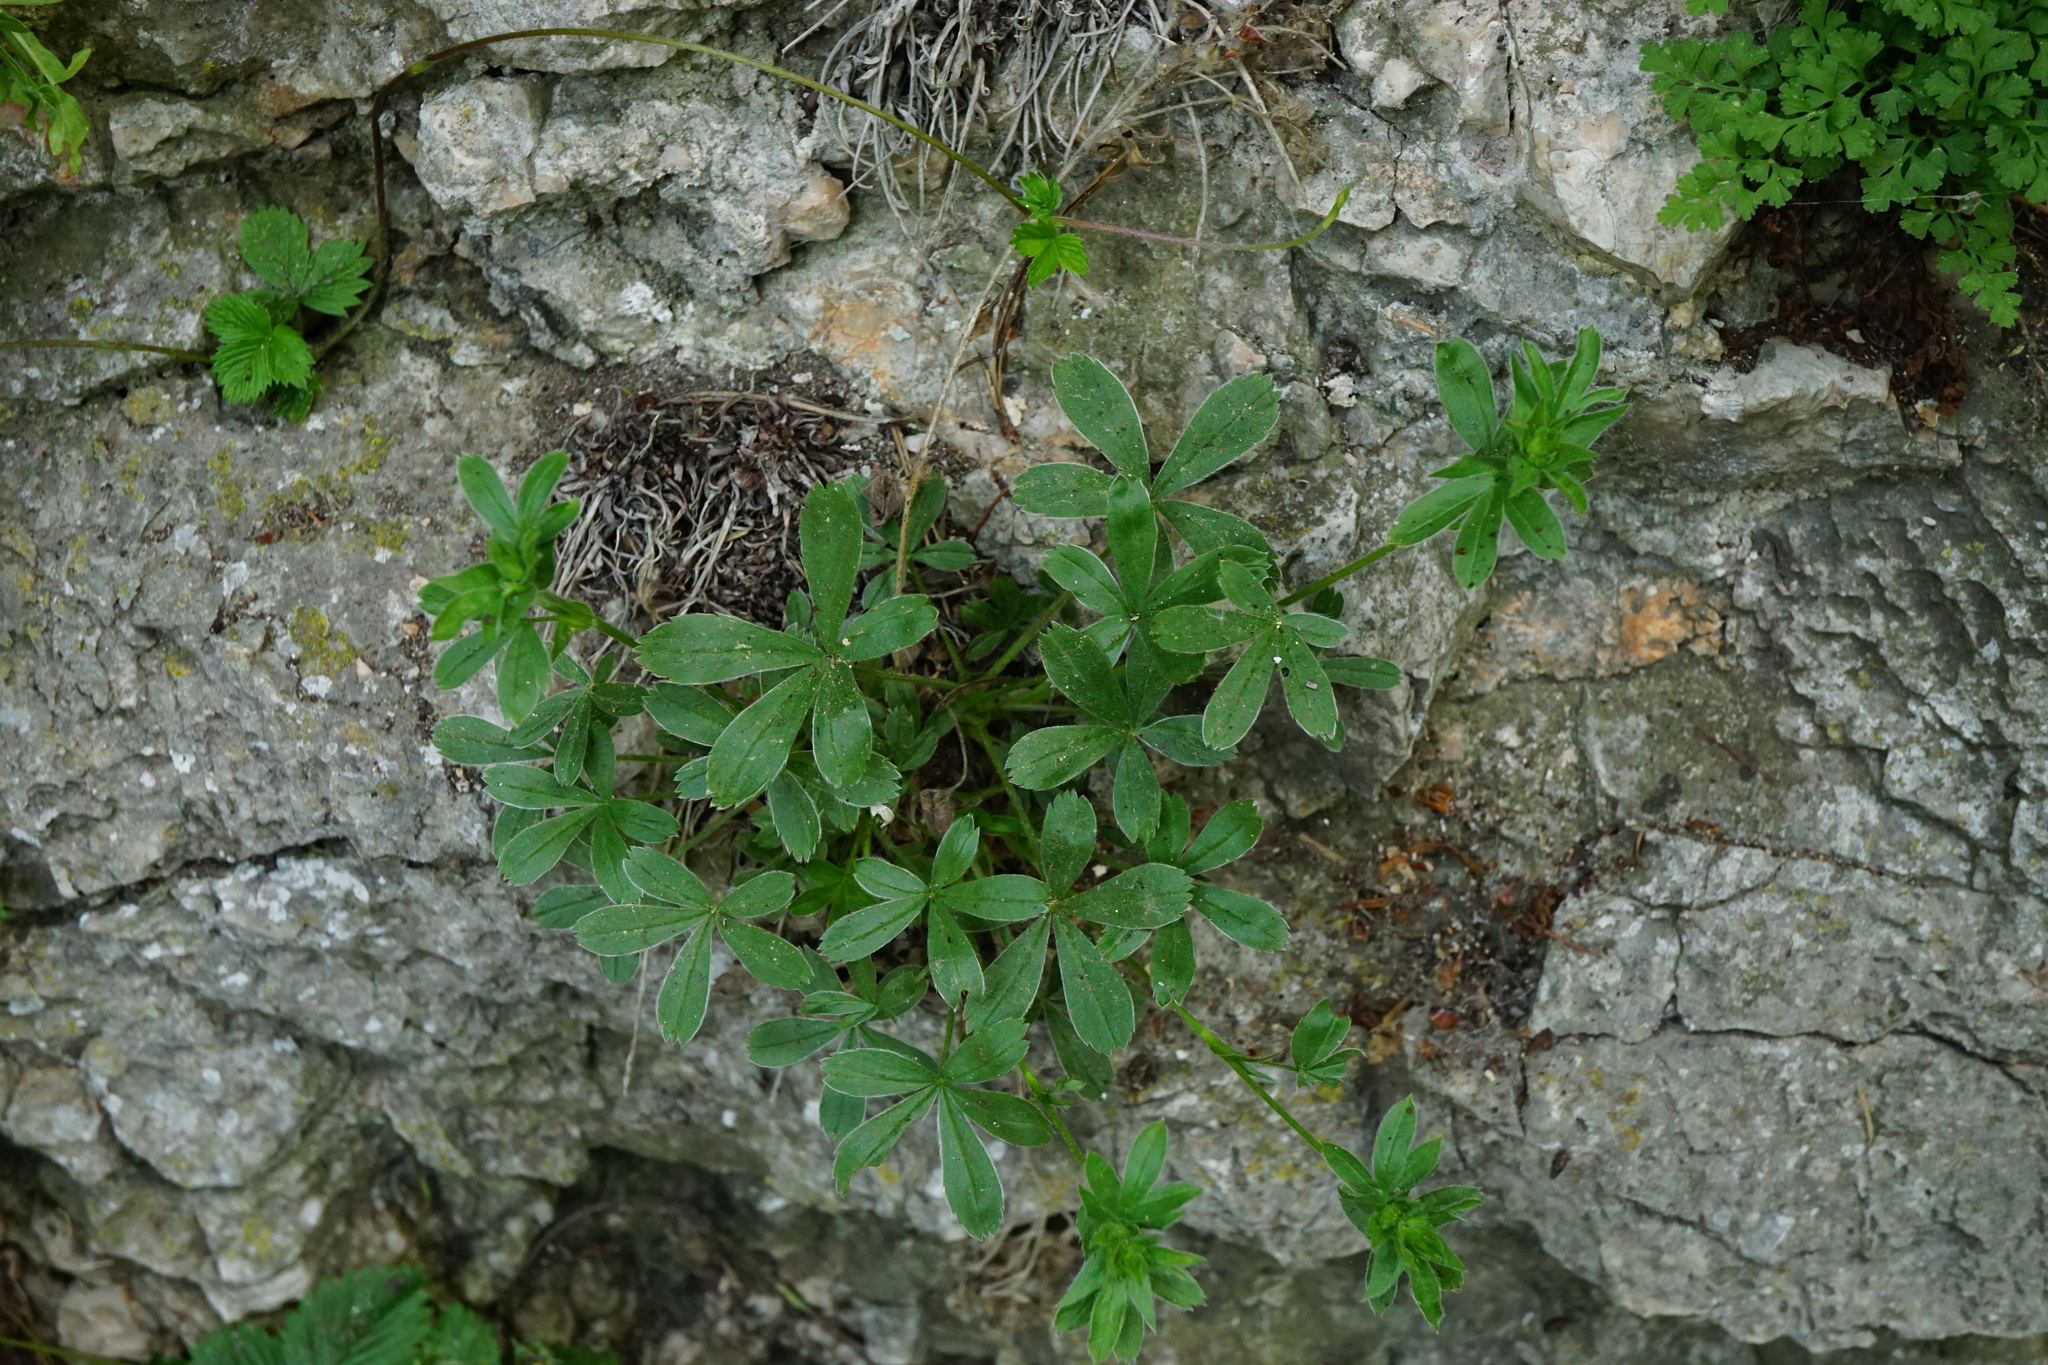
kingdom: Plantae
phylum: Tracheophyta
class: Magnoliopsida
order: Rosales
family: Rosaceae
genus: Potentilla
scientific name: Potentilla caulescens
